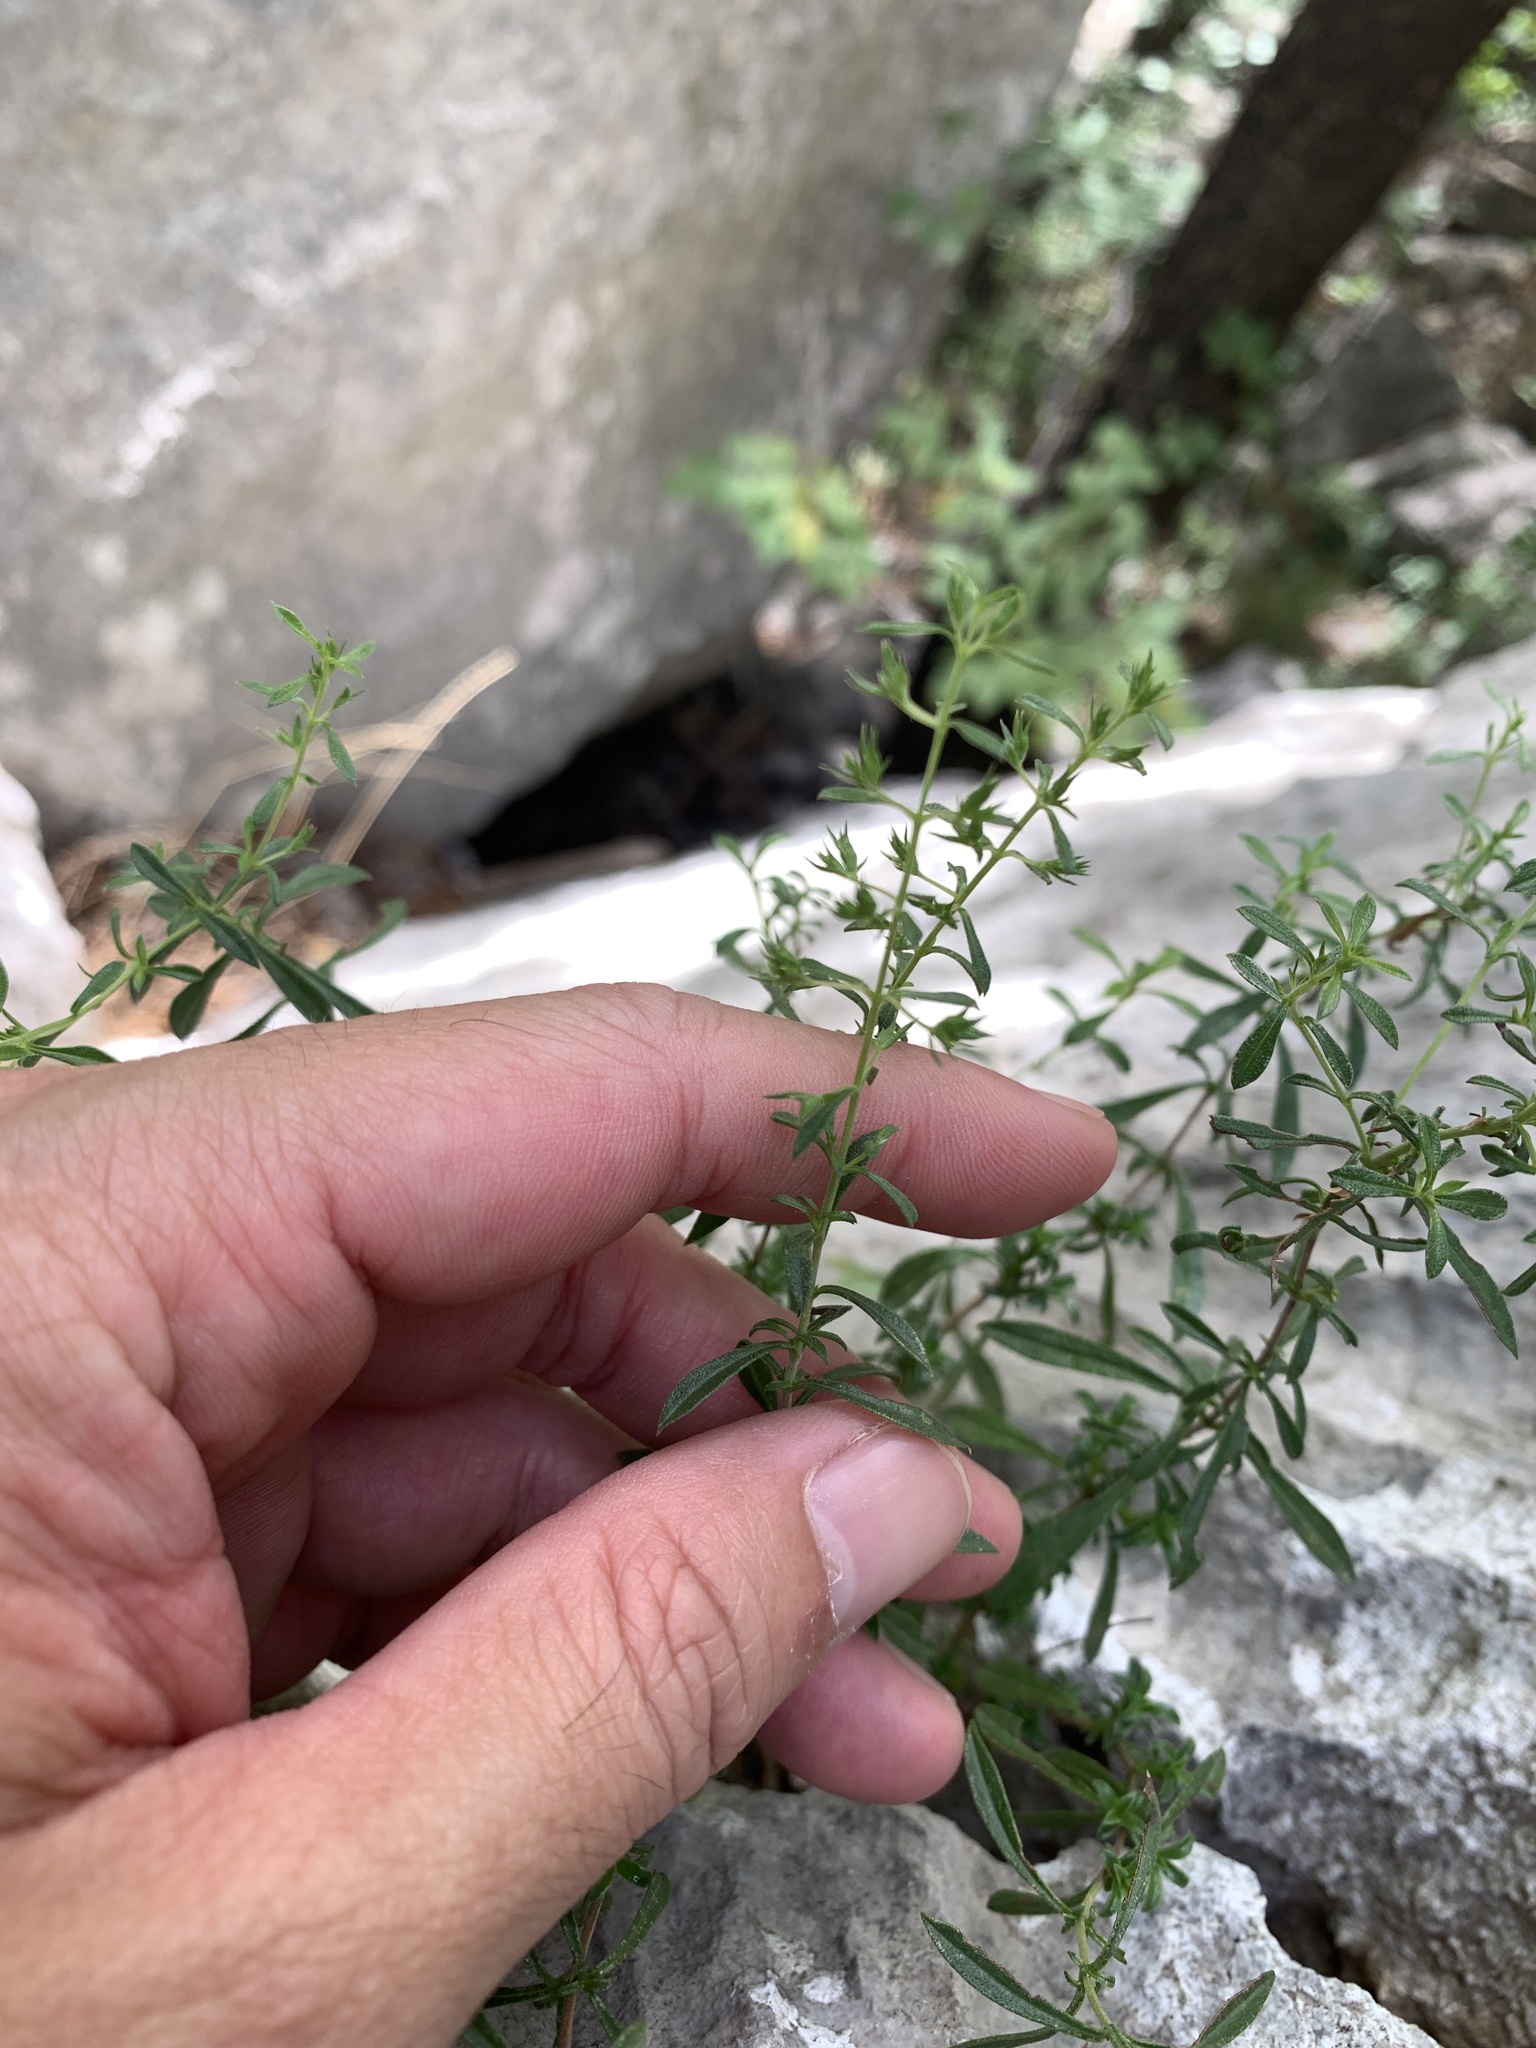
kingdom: Plantae
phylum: Tracheophyta
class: Magnoliopsida
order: Lamiales
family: Lamiaceae
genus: Satureja
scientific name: Satureja montana
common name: Winter savory
